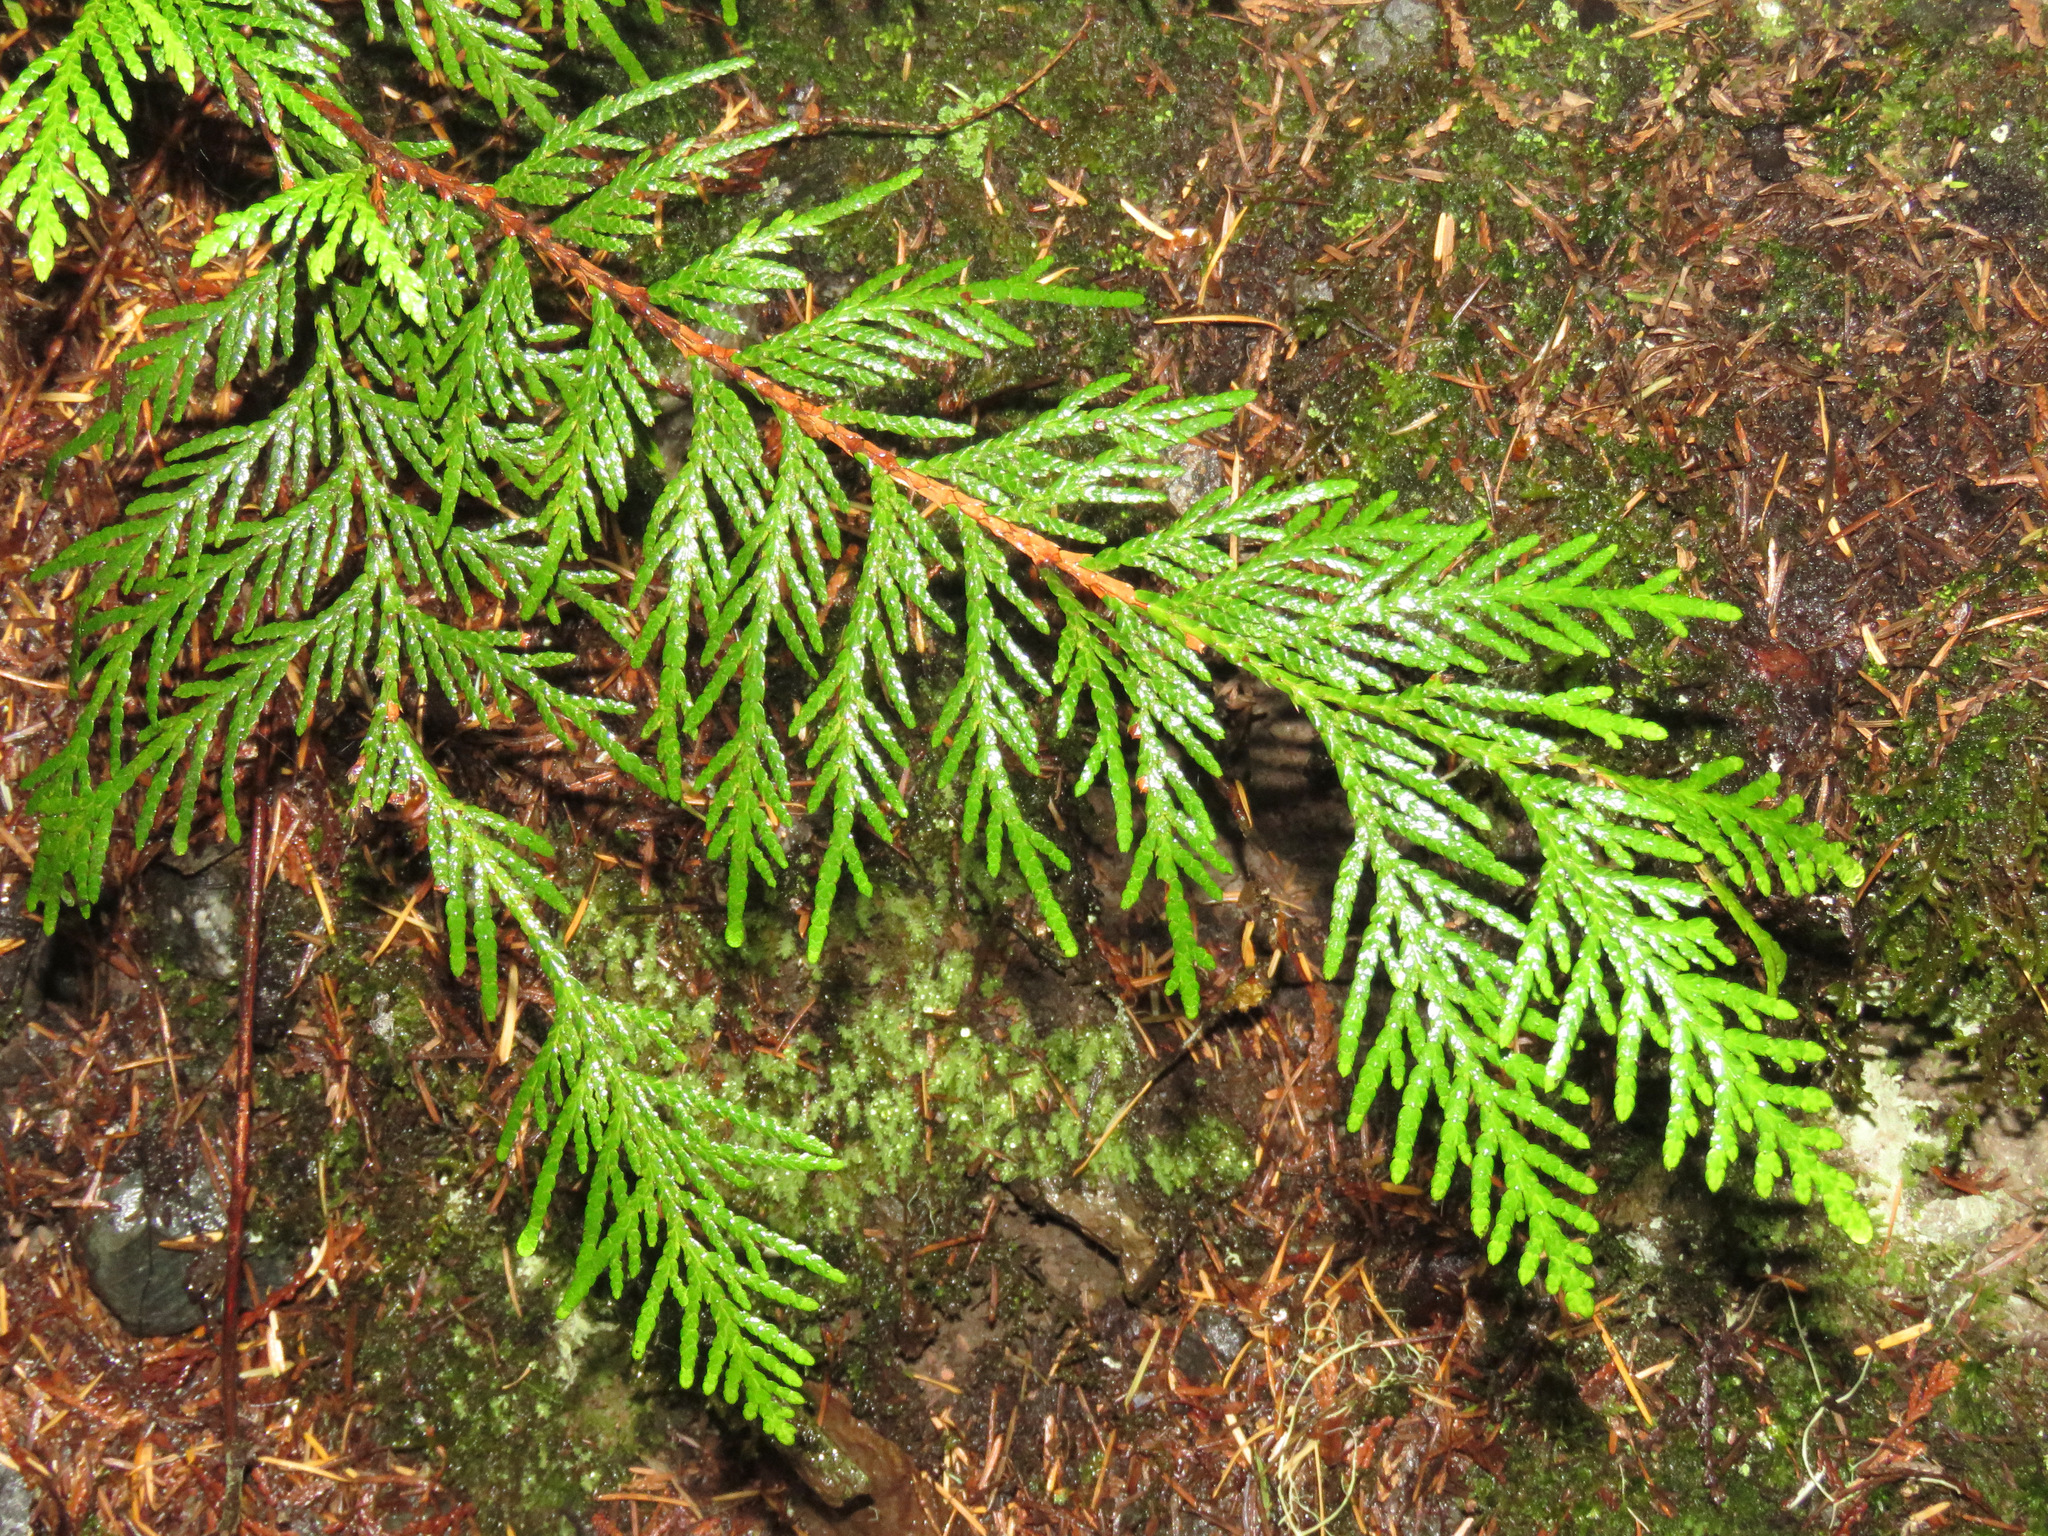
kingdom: Plantae
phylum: Tracheophyta
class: Pinopsida
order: Pinales
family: Cupressaceae
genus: Thuja
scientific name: Thuja plicata
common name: Western red-cedar
